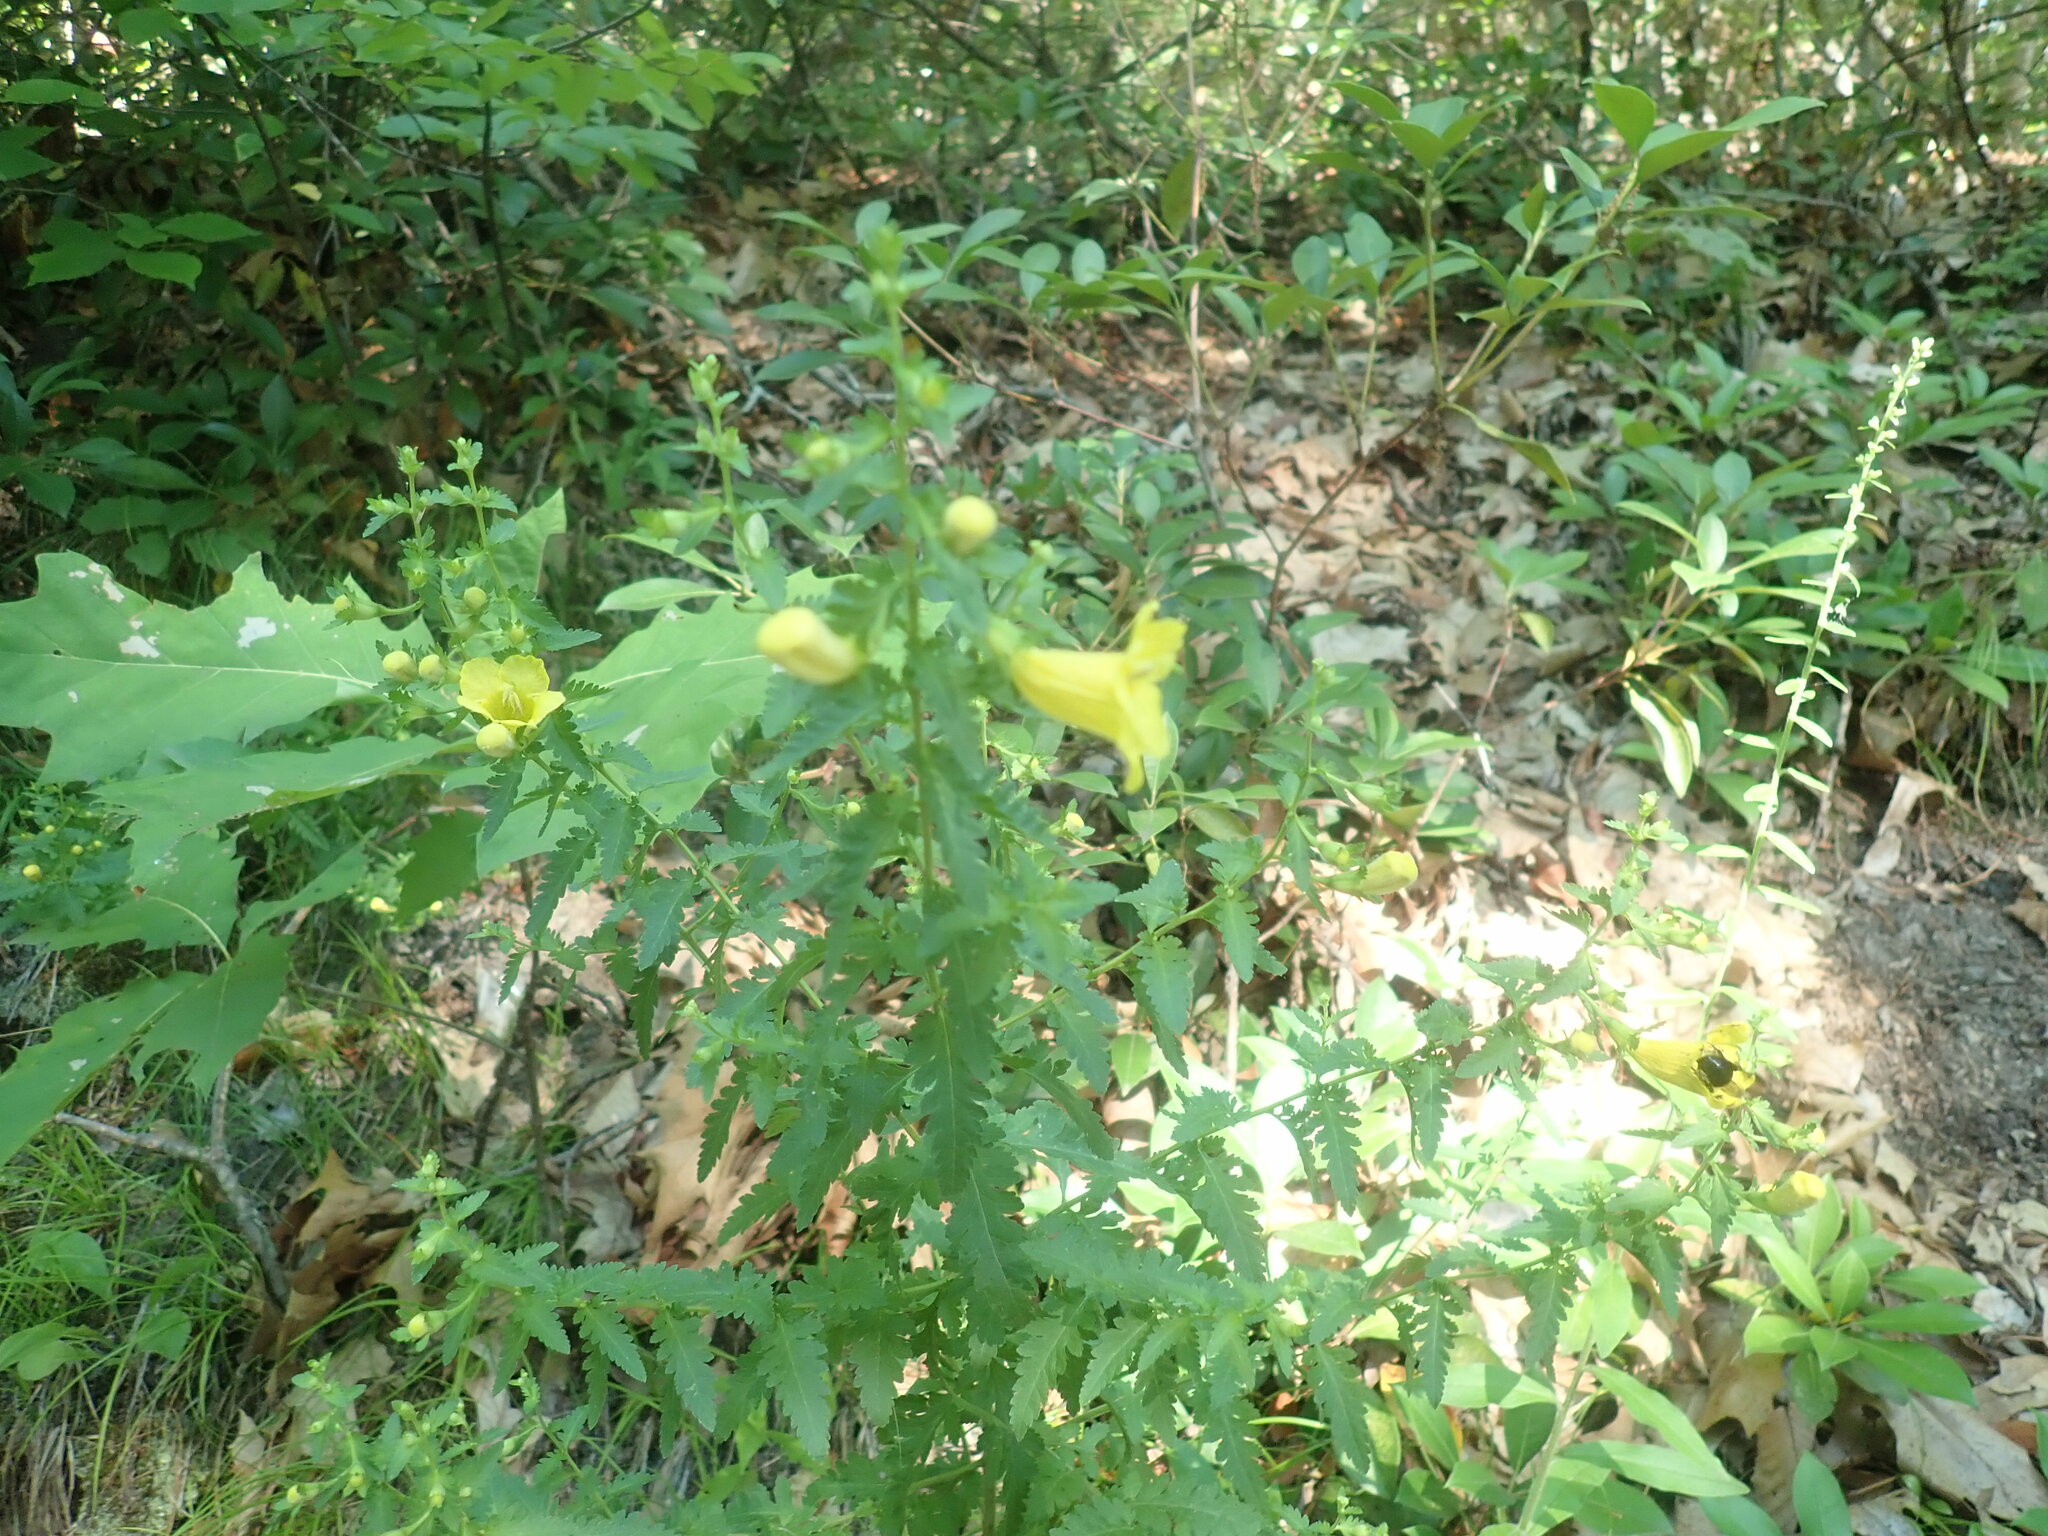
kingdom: Plantae
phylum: Tracheophyta
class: Magnoliopsida
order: Lamiales
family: Orobanchaceae
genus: Aureolaria
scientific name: Aureolaria pedicularia
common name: Annual false foxglove
